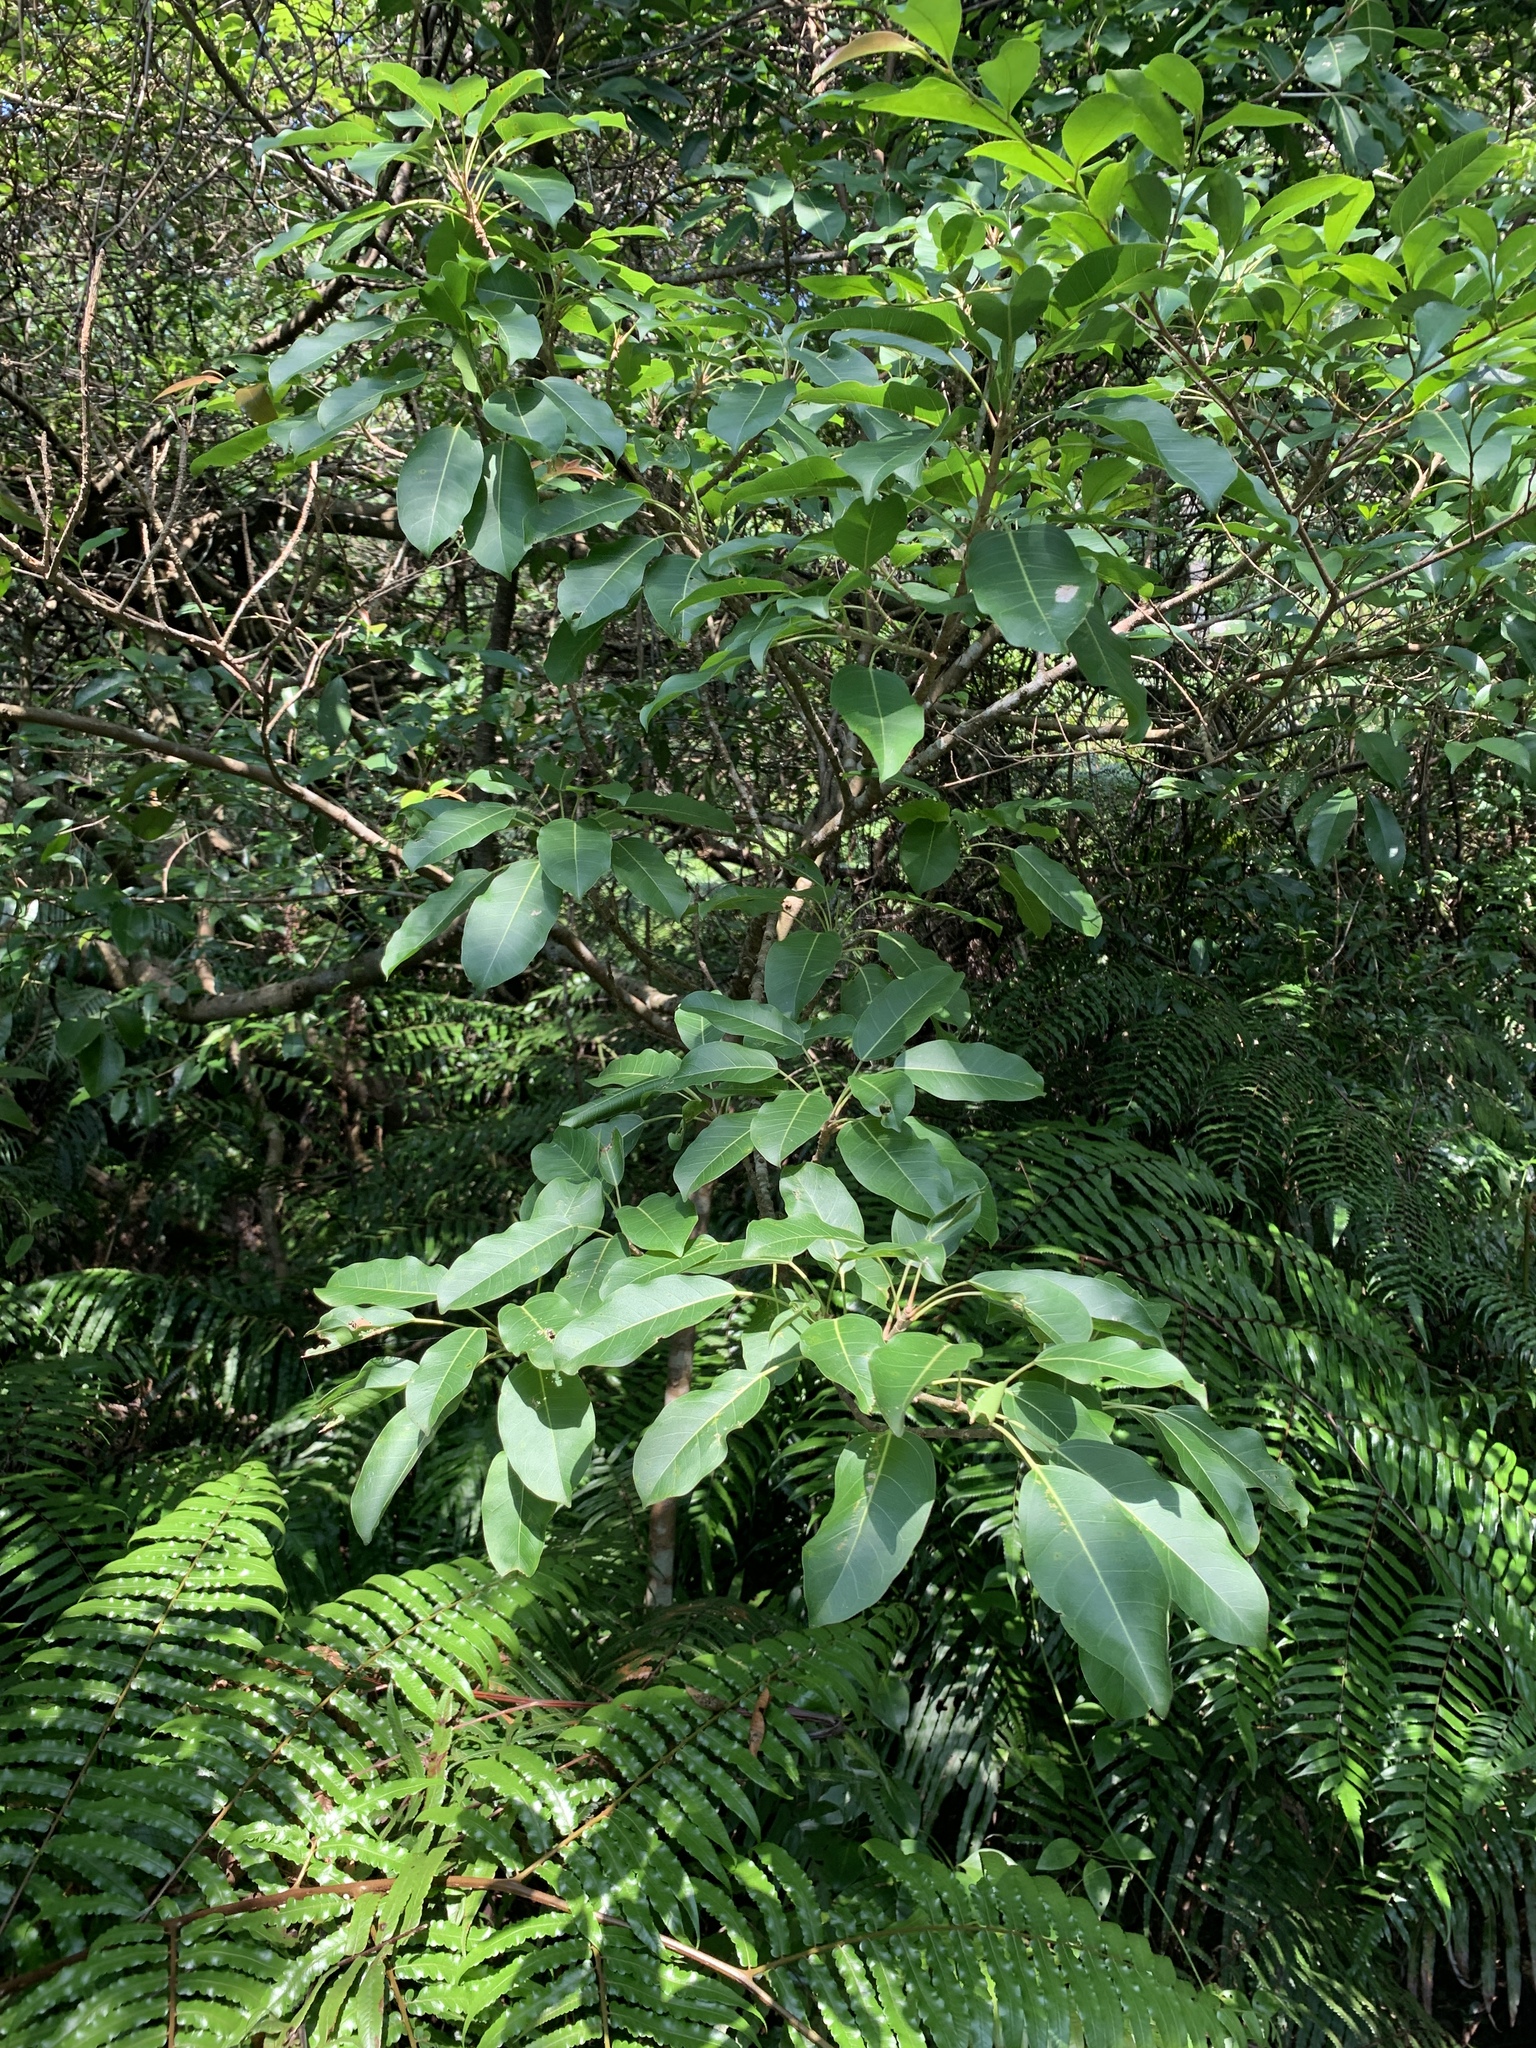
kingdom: Plantae
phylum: Tracheophyta
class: Magnoliopsida
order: Rosales
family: Moraceae
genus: Ficus
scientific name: Ficus subpisocarpa
